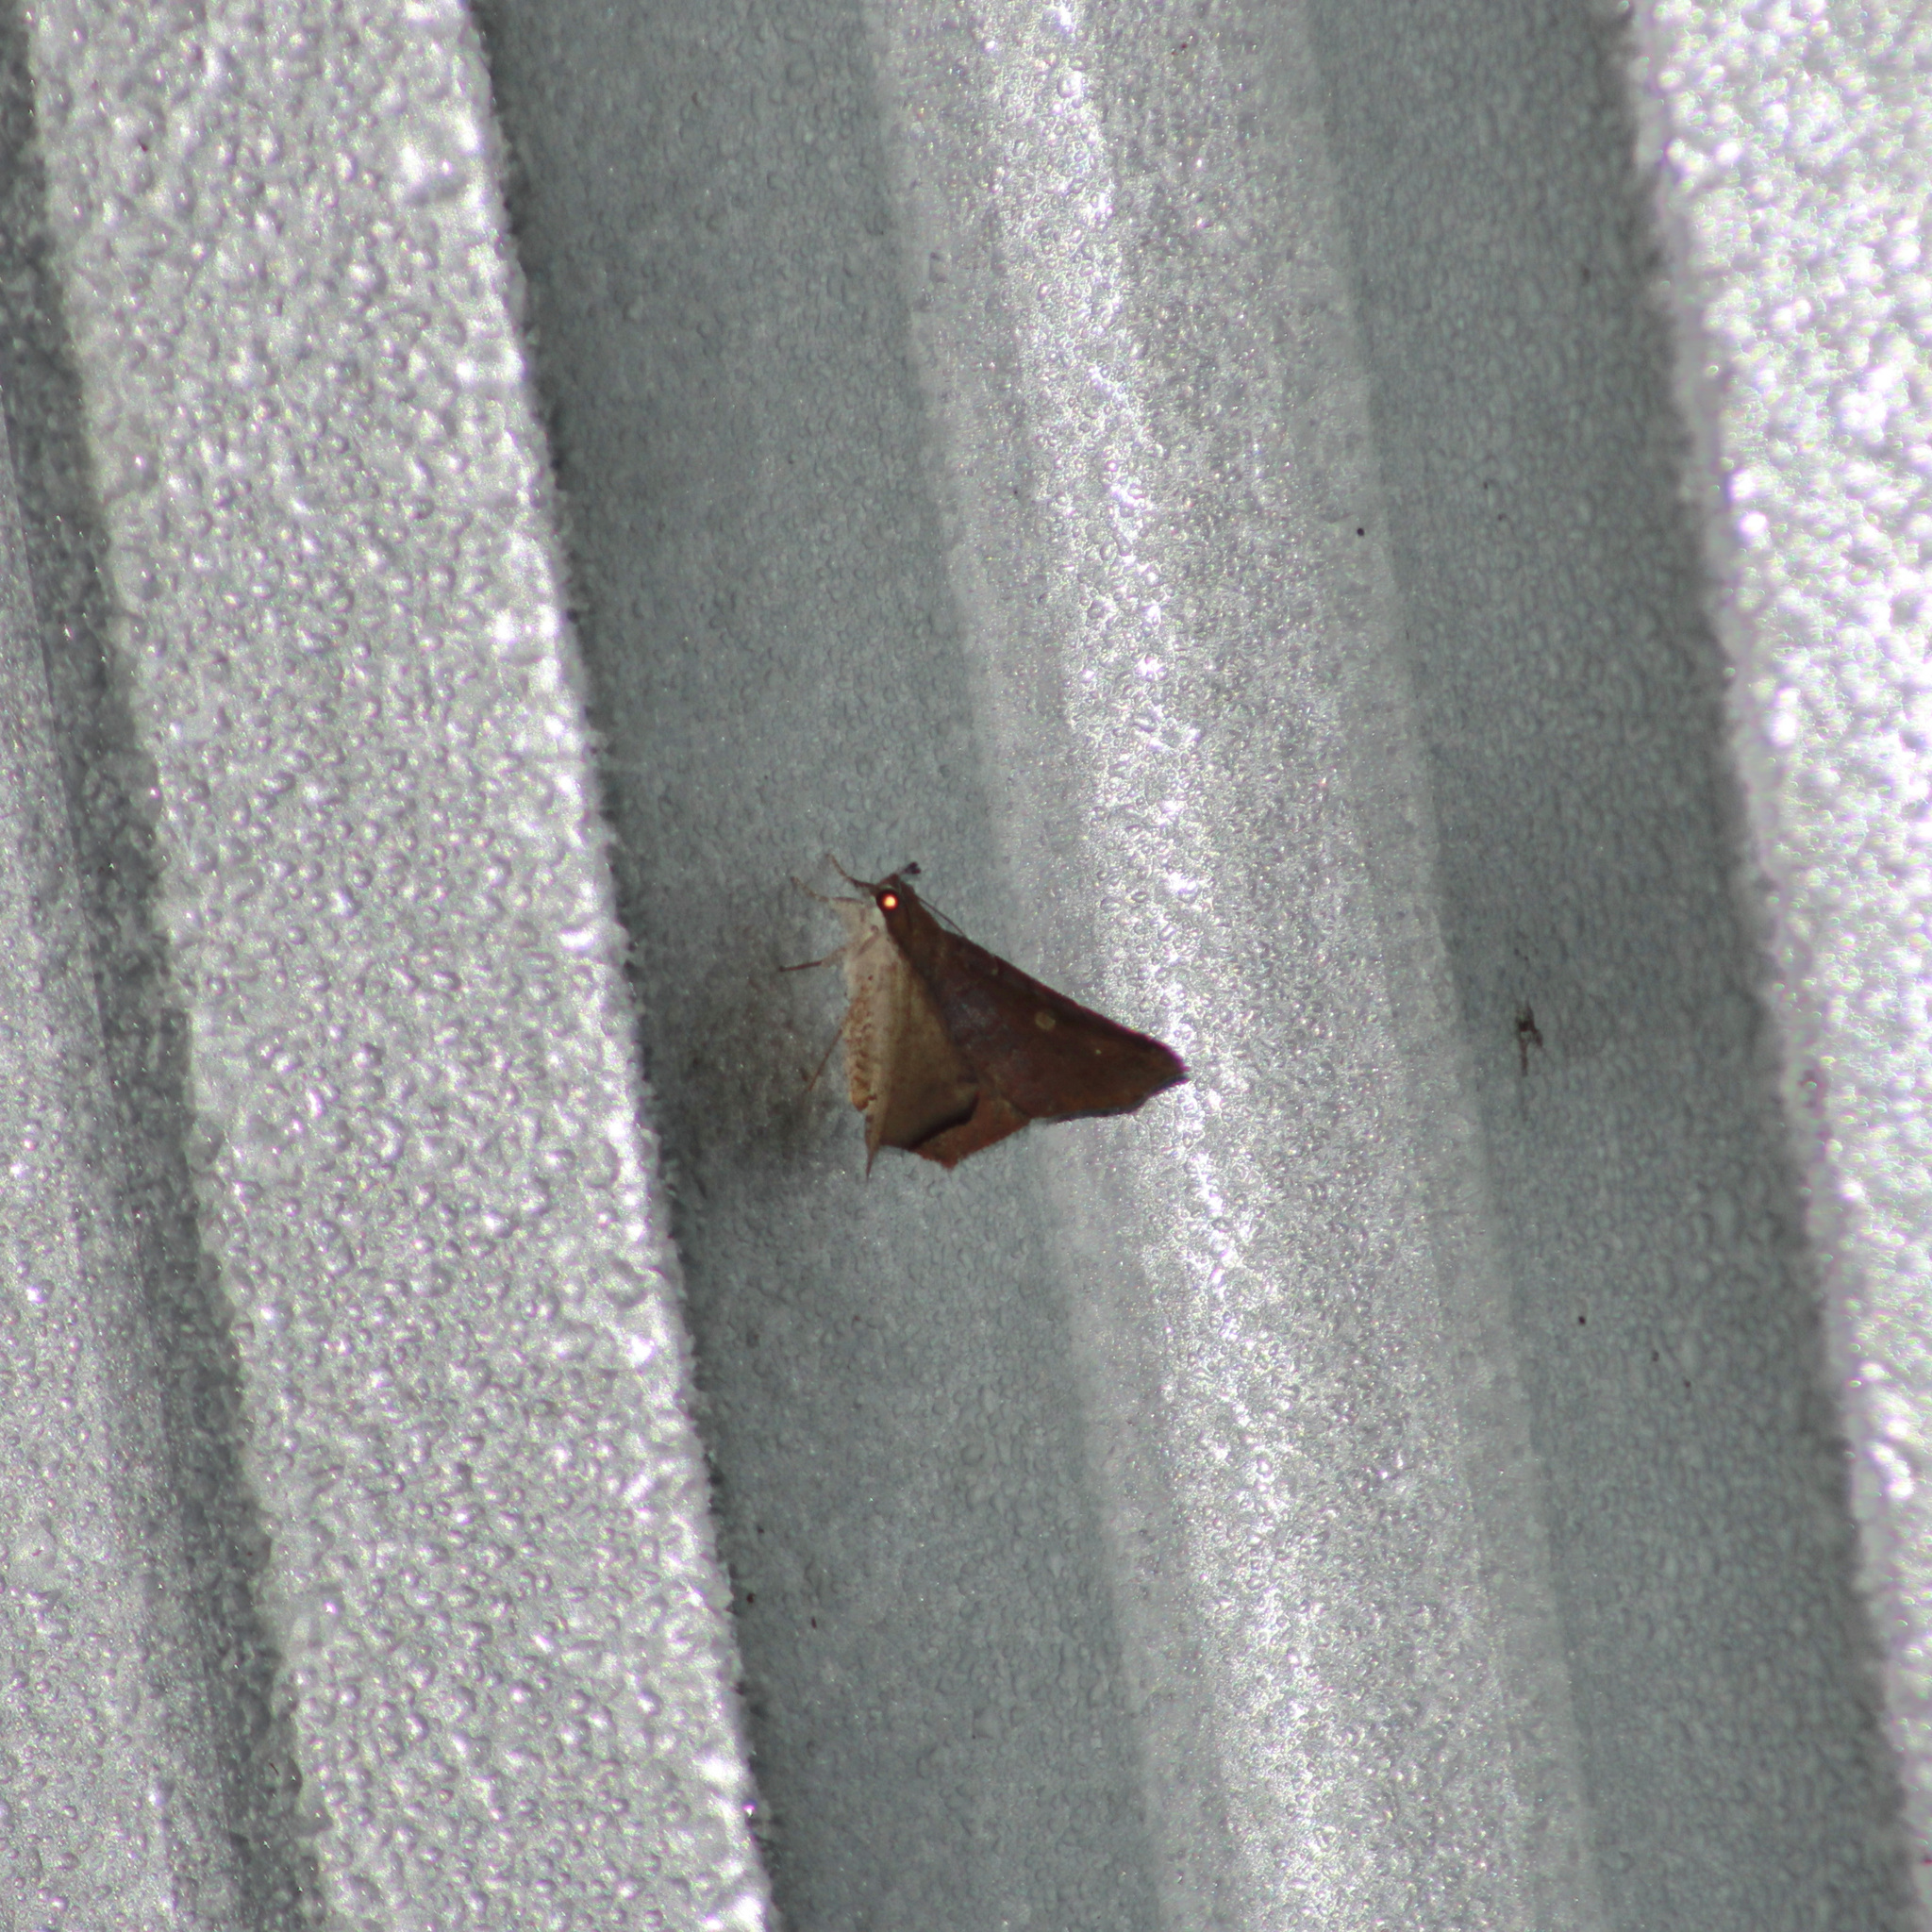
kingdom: Animalia
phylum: Arthropoda
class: Insecta
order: Lepidoptera
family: Erebidae
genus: Euclystis
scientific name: Euclystis angularis
